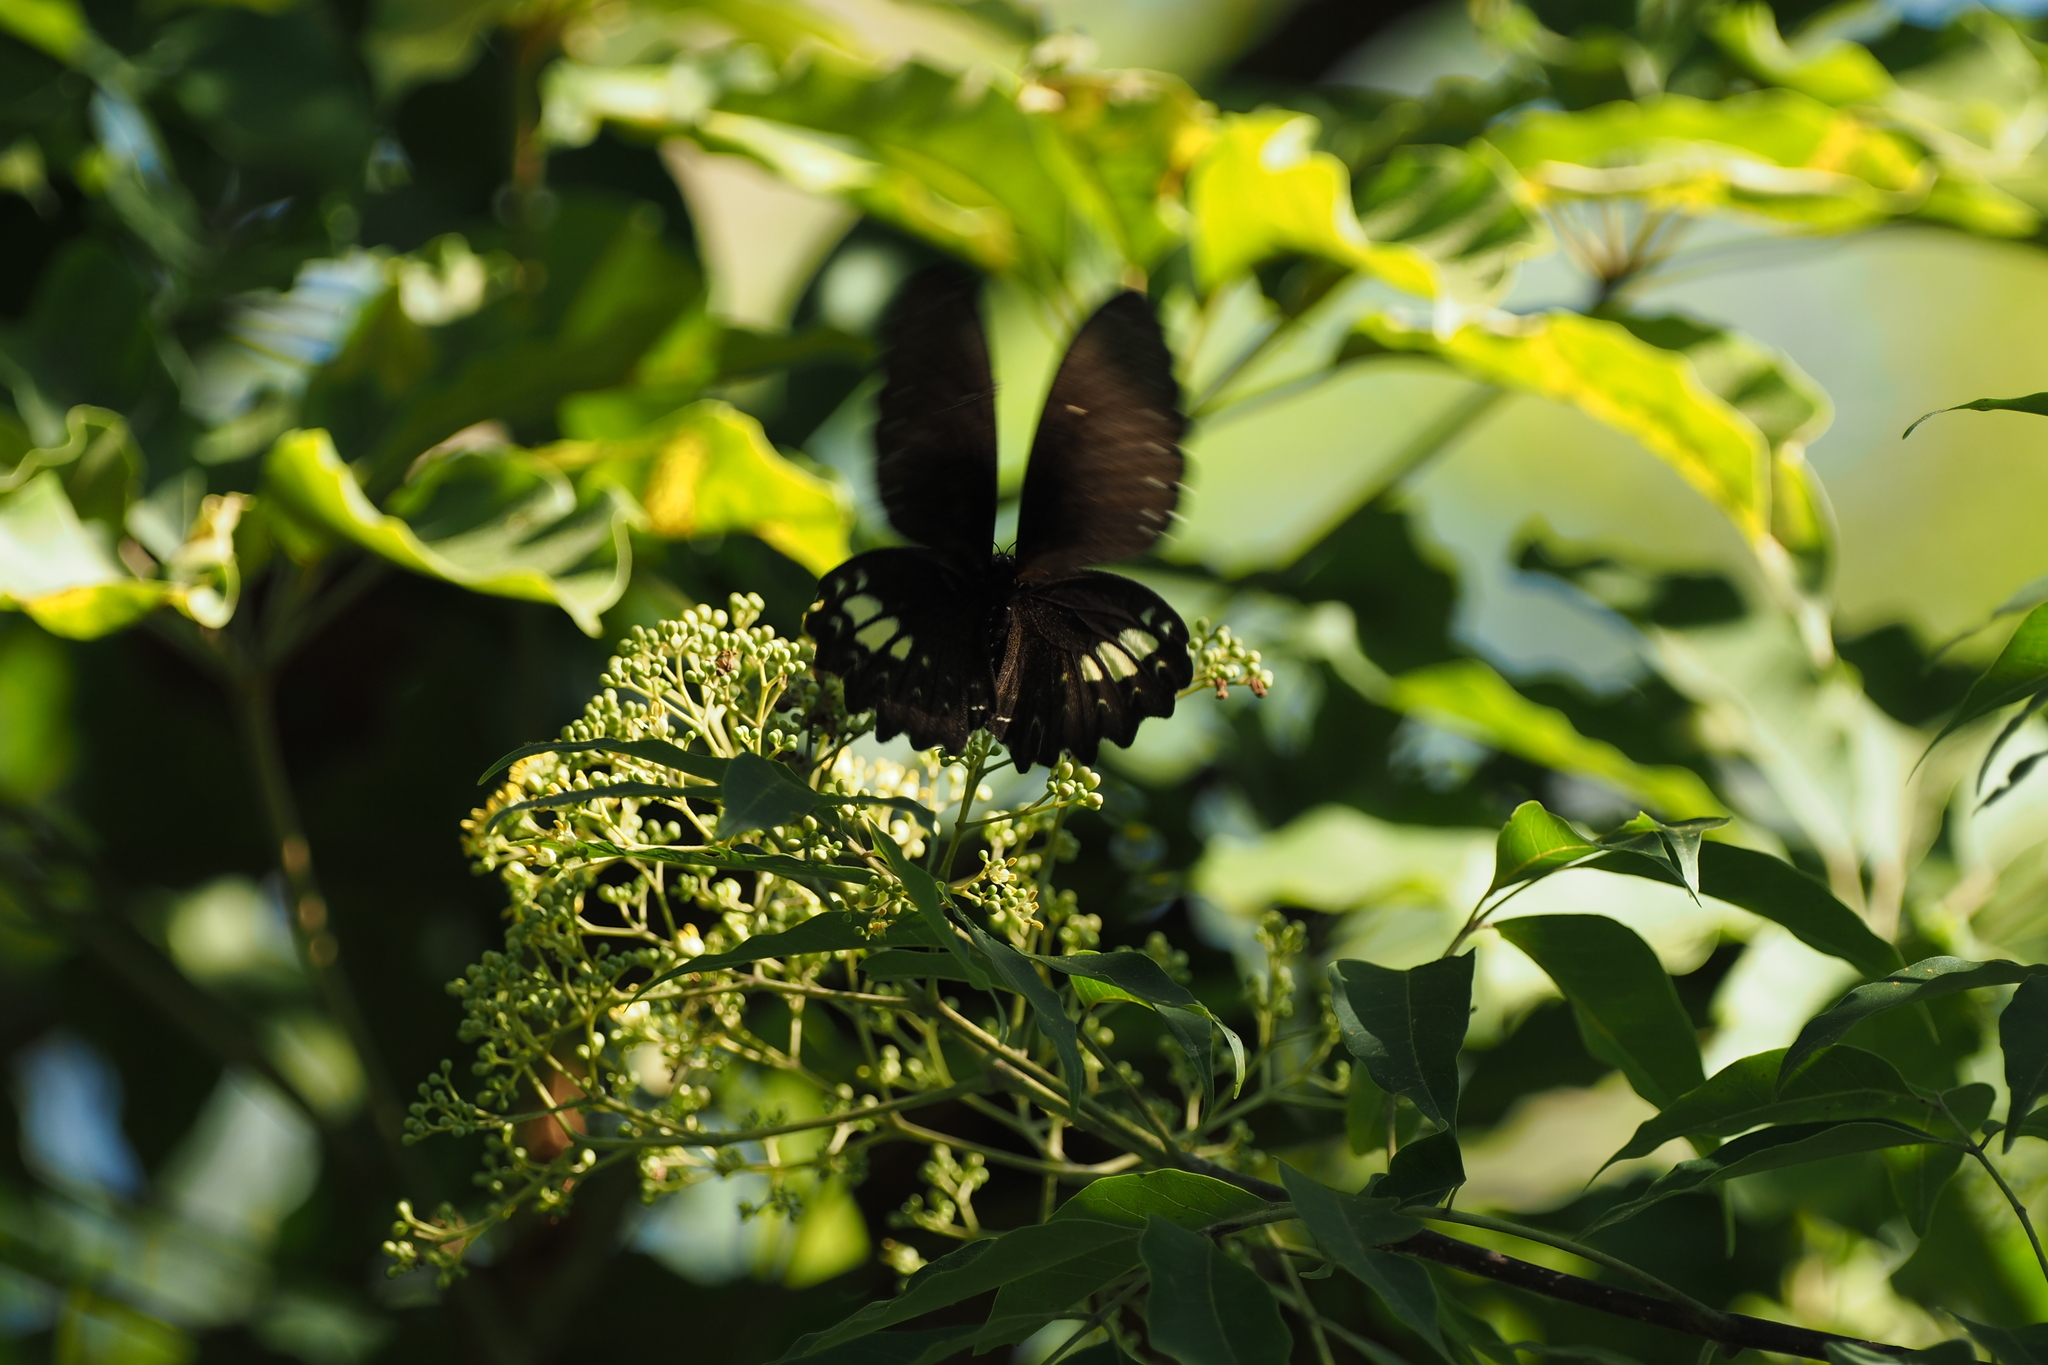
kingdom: Animalia
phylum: Arthropoda
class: Insecta
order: Lepidoptera
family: Papilionidae
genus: Papilio
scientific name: Papilio castor
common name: Common raven
